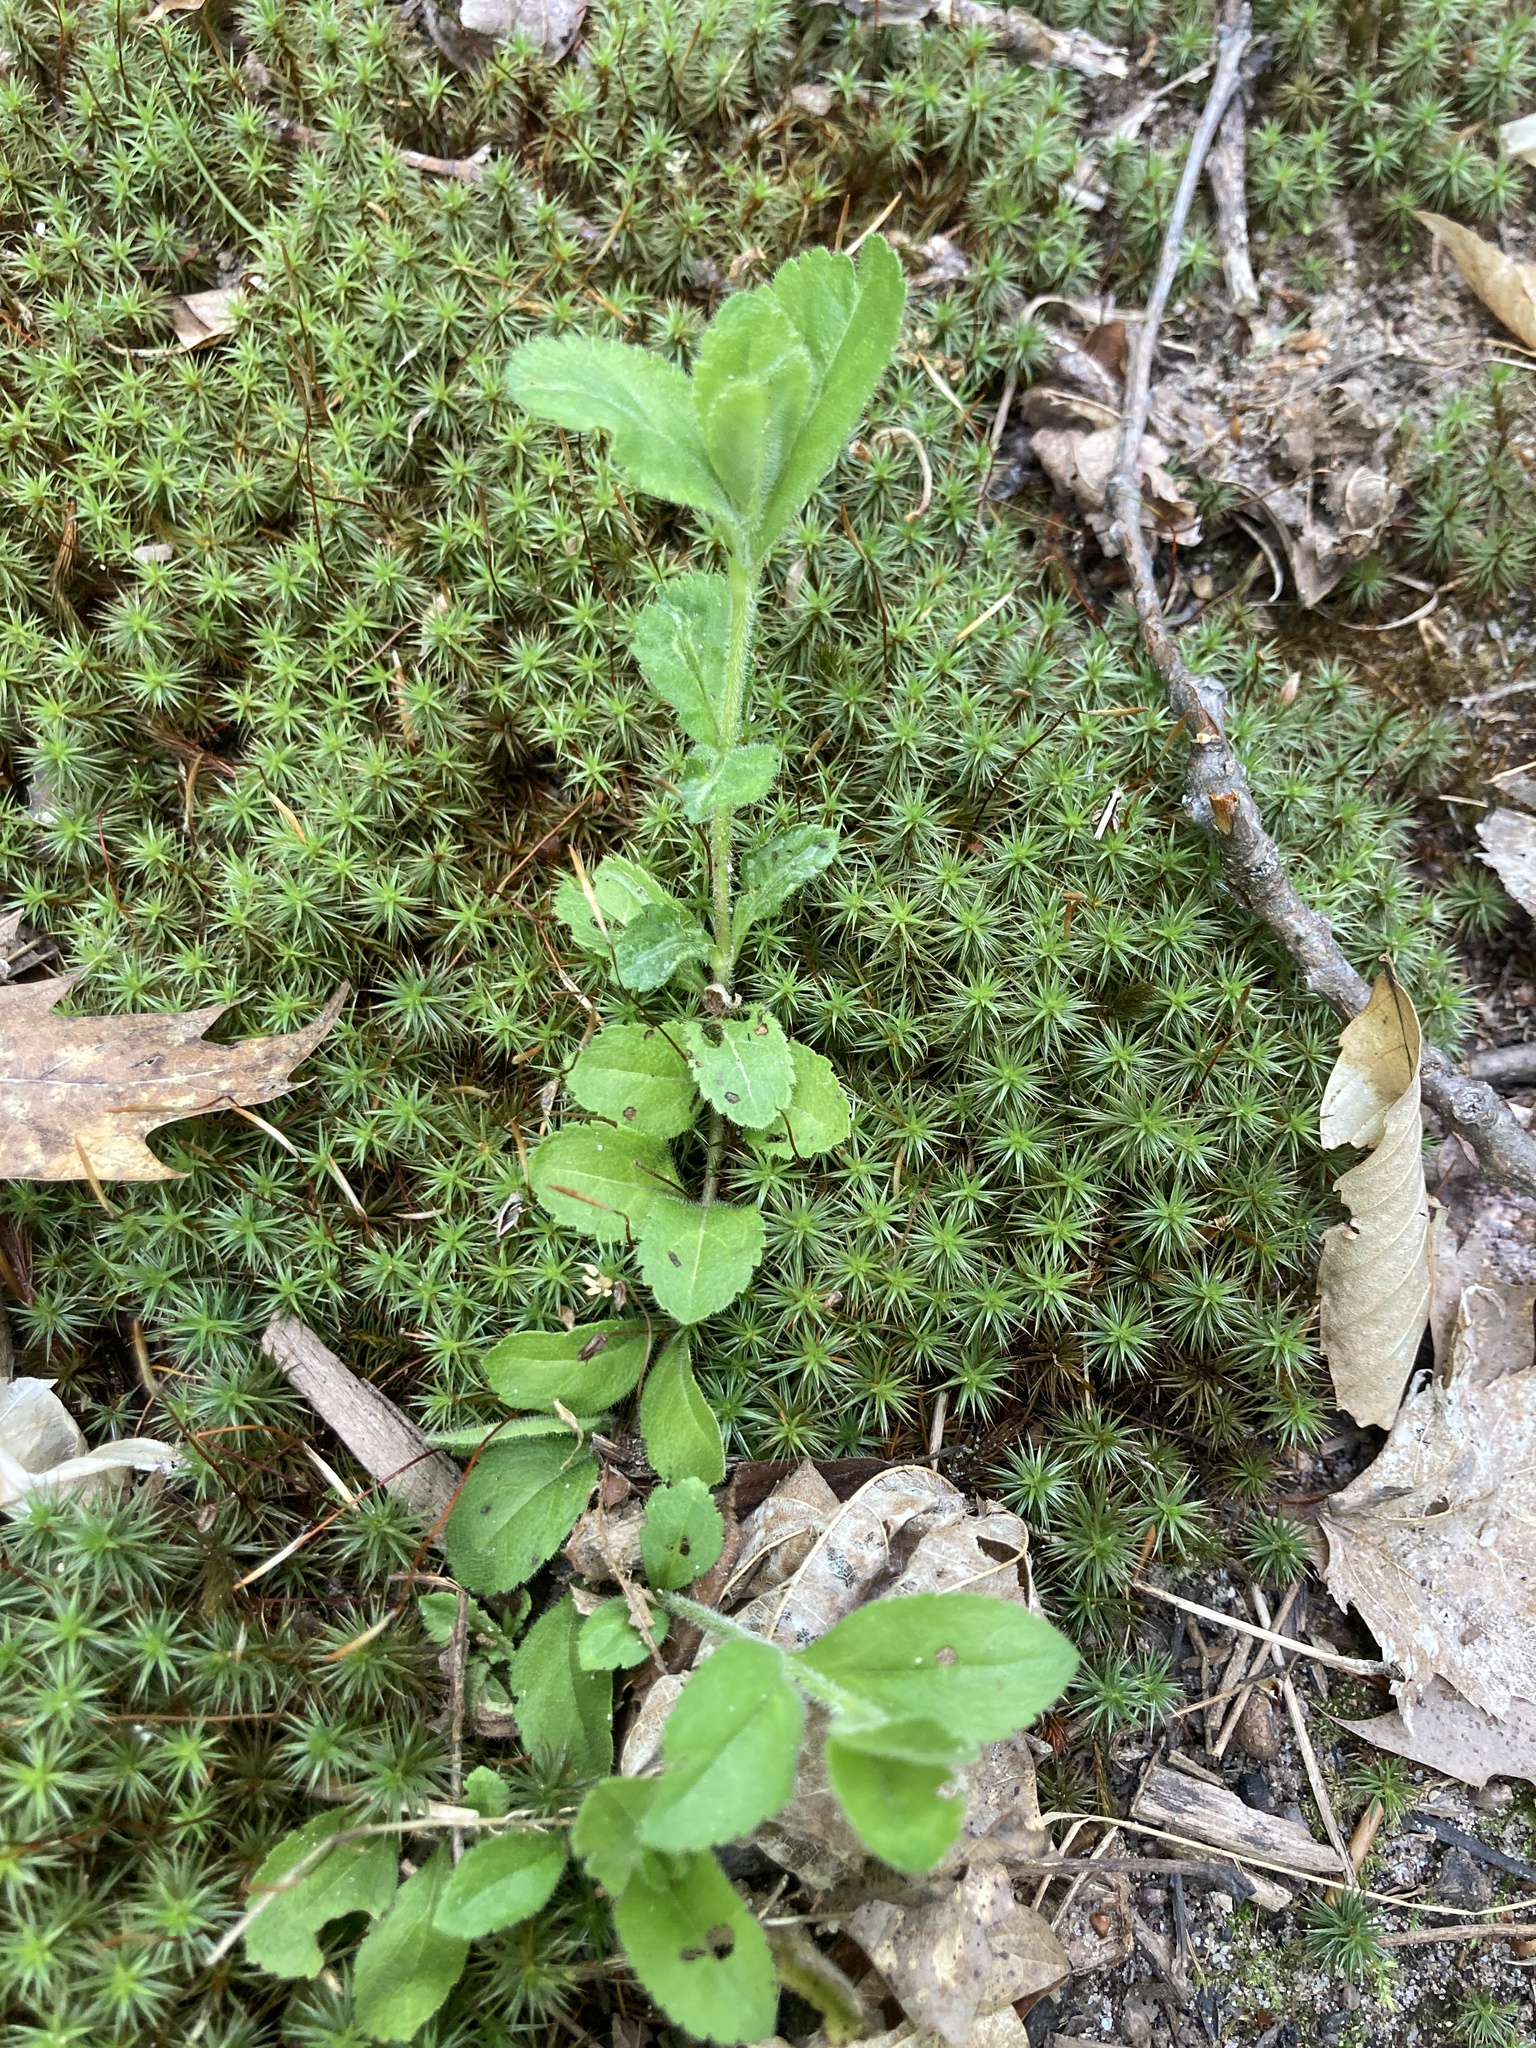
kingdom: Plantae
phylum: Tracheophyta
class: Magnoliopsida
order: Lamiales
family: Plantaginaceae
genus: Veronica
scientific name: Veronica officinalis
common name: Common speedwell
